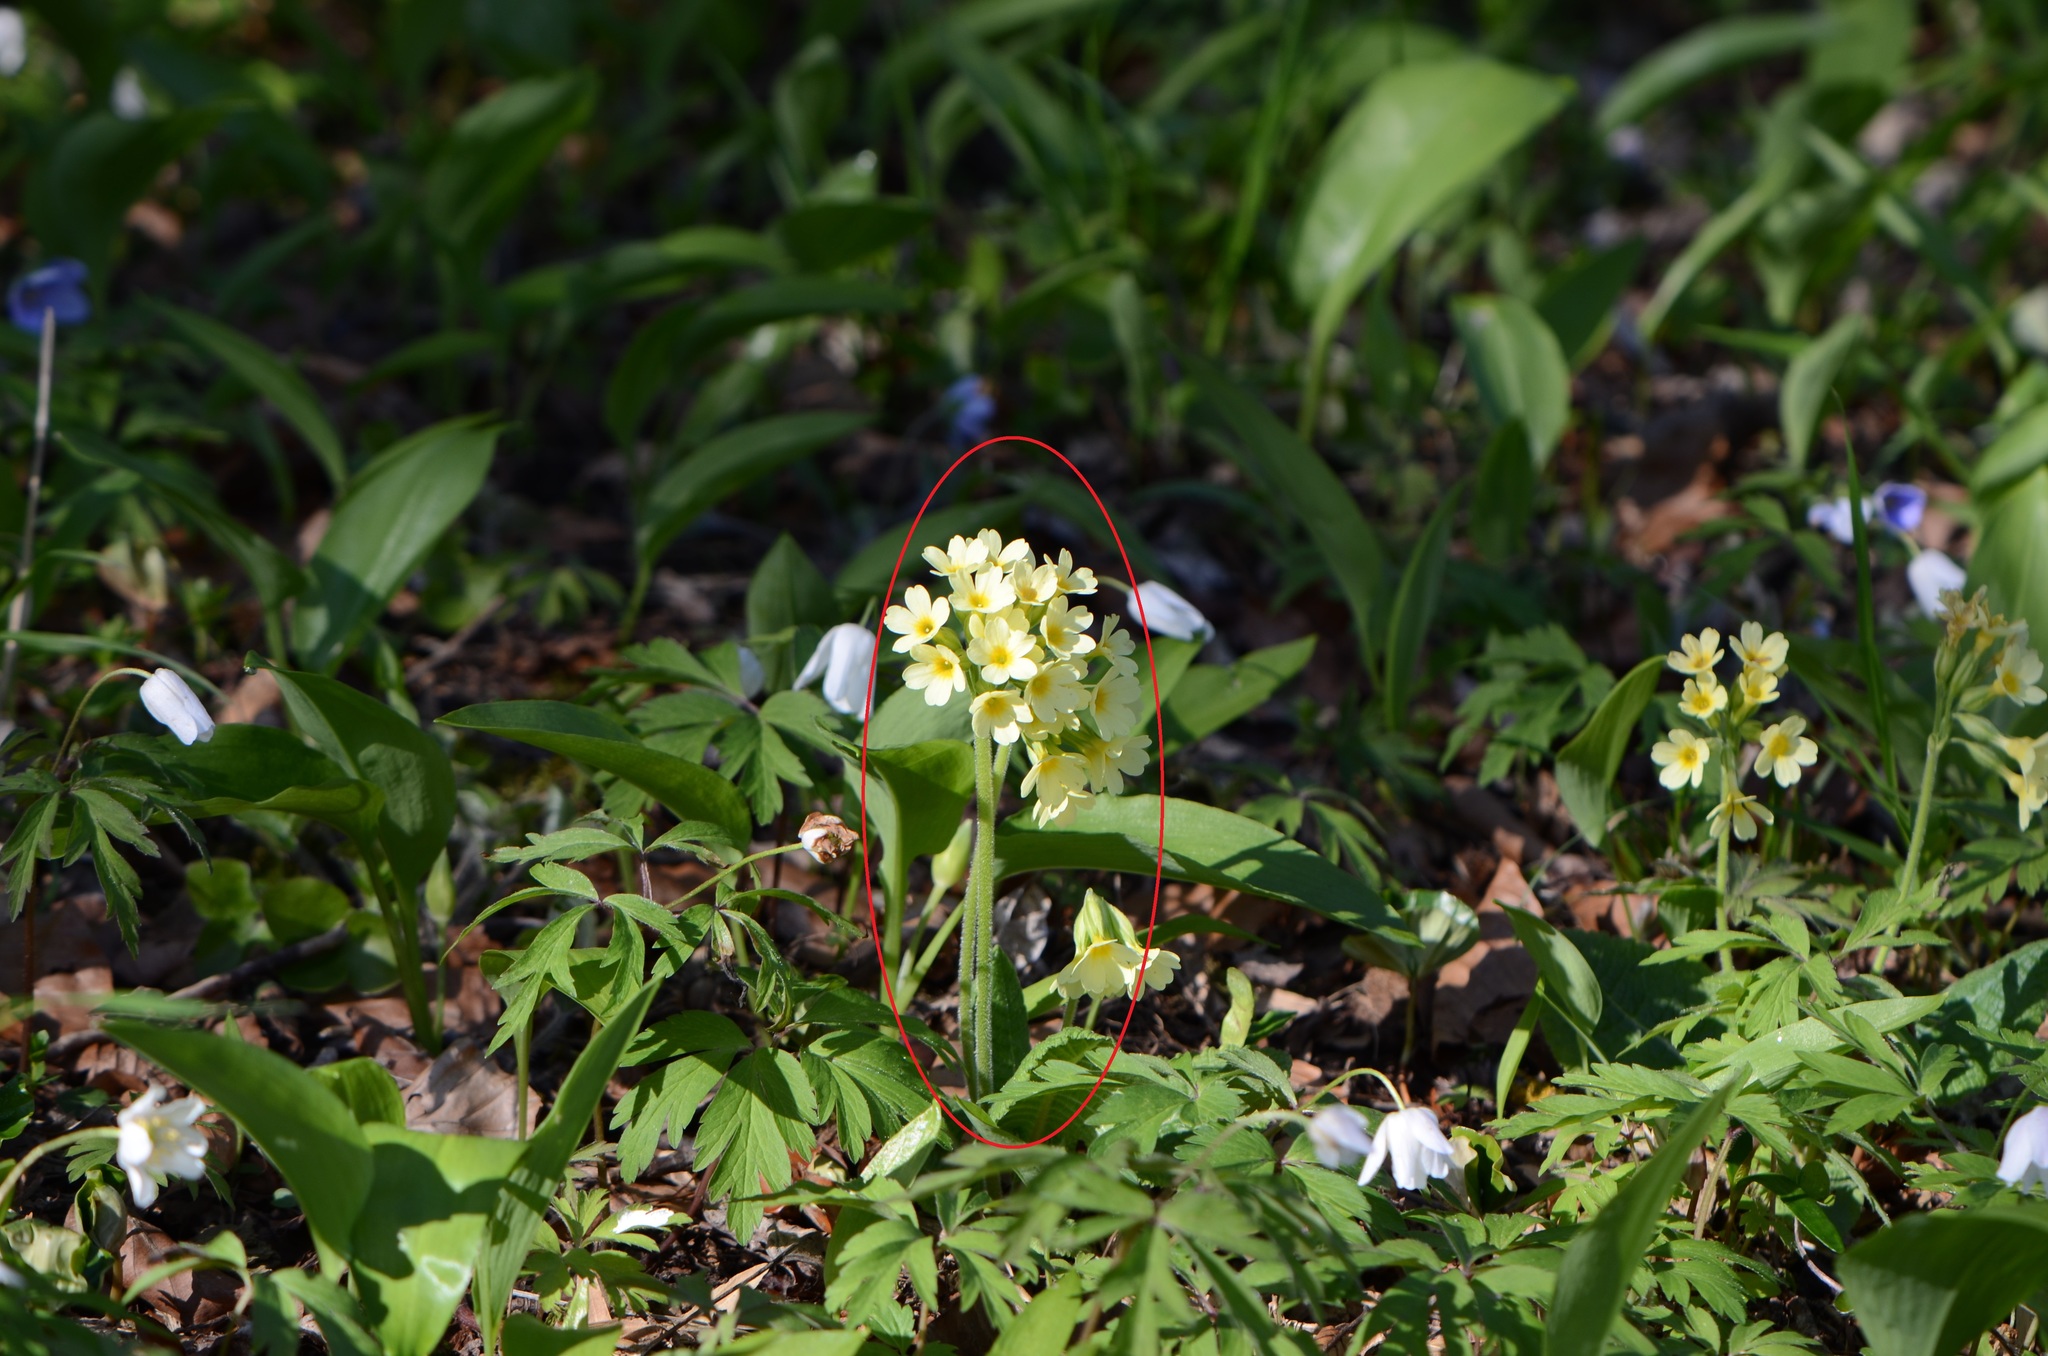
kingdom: Plantae
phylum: Tracheophyta
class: Magnoliopsida
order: Ericales
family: Primulaceae
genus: Primula
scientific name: Primula elatior
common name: Oxlip
